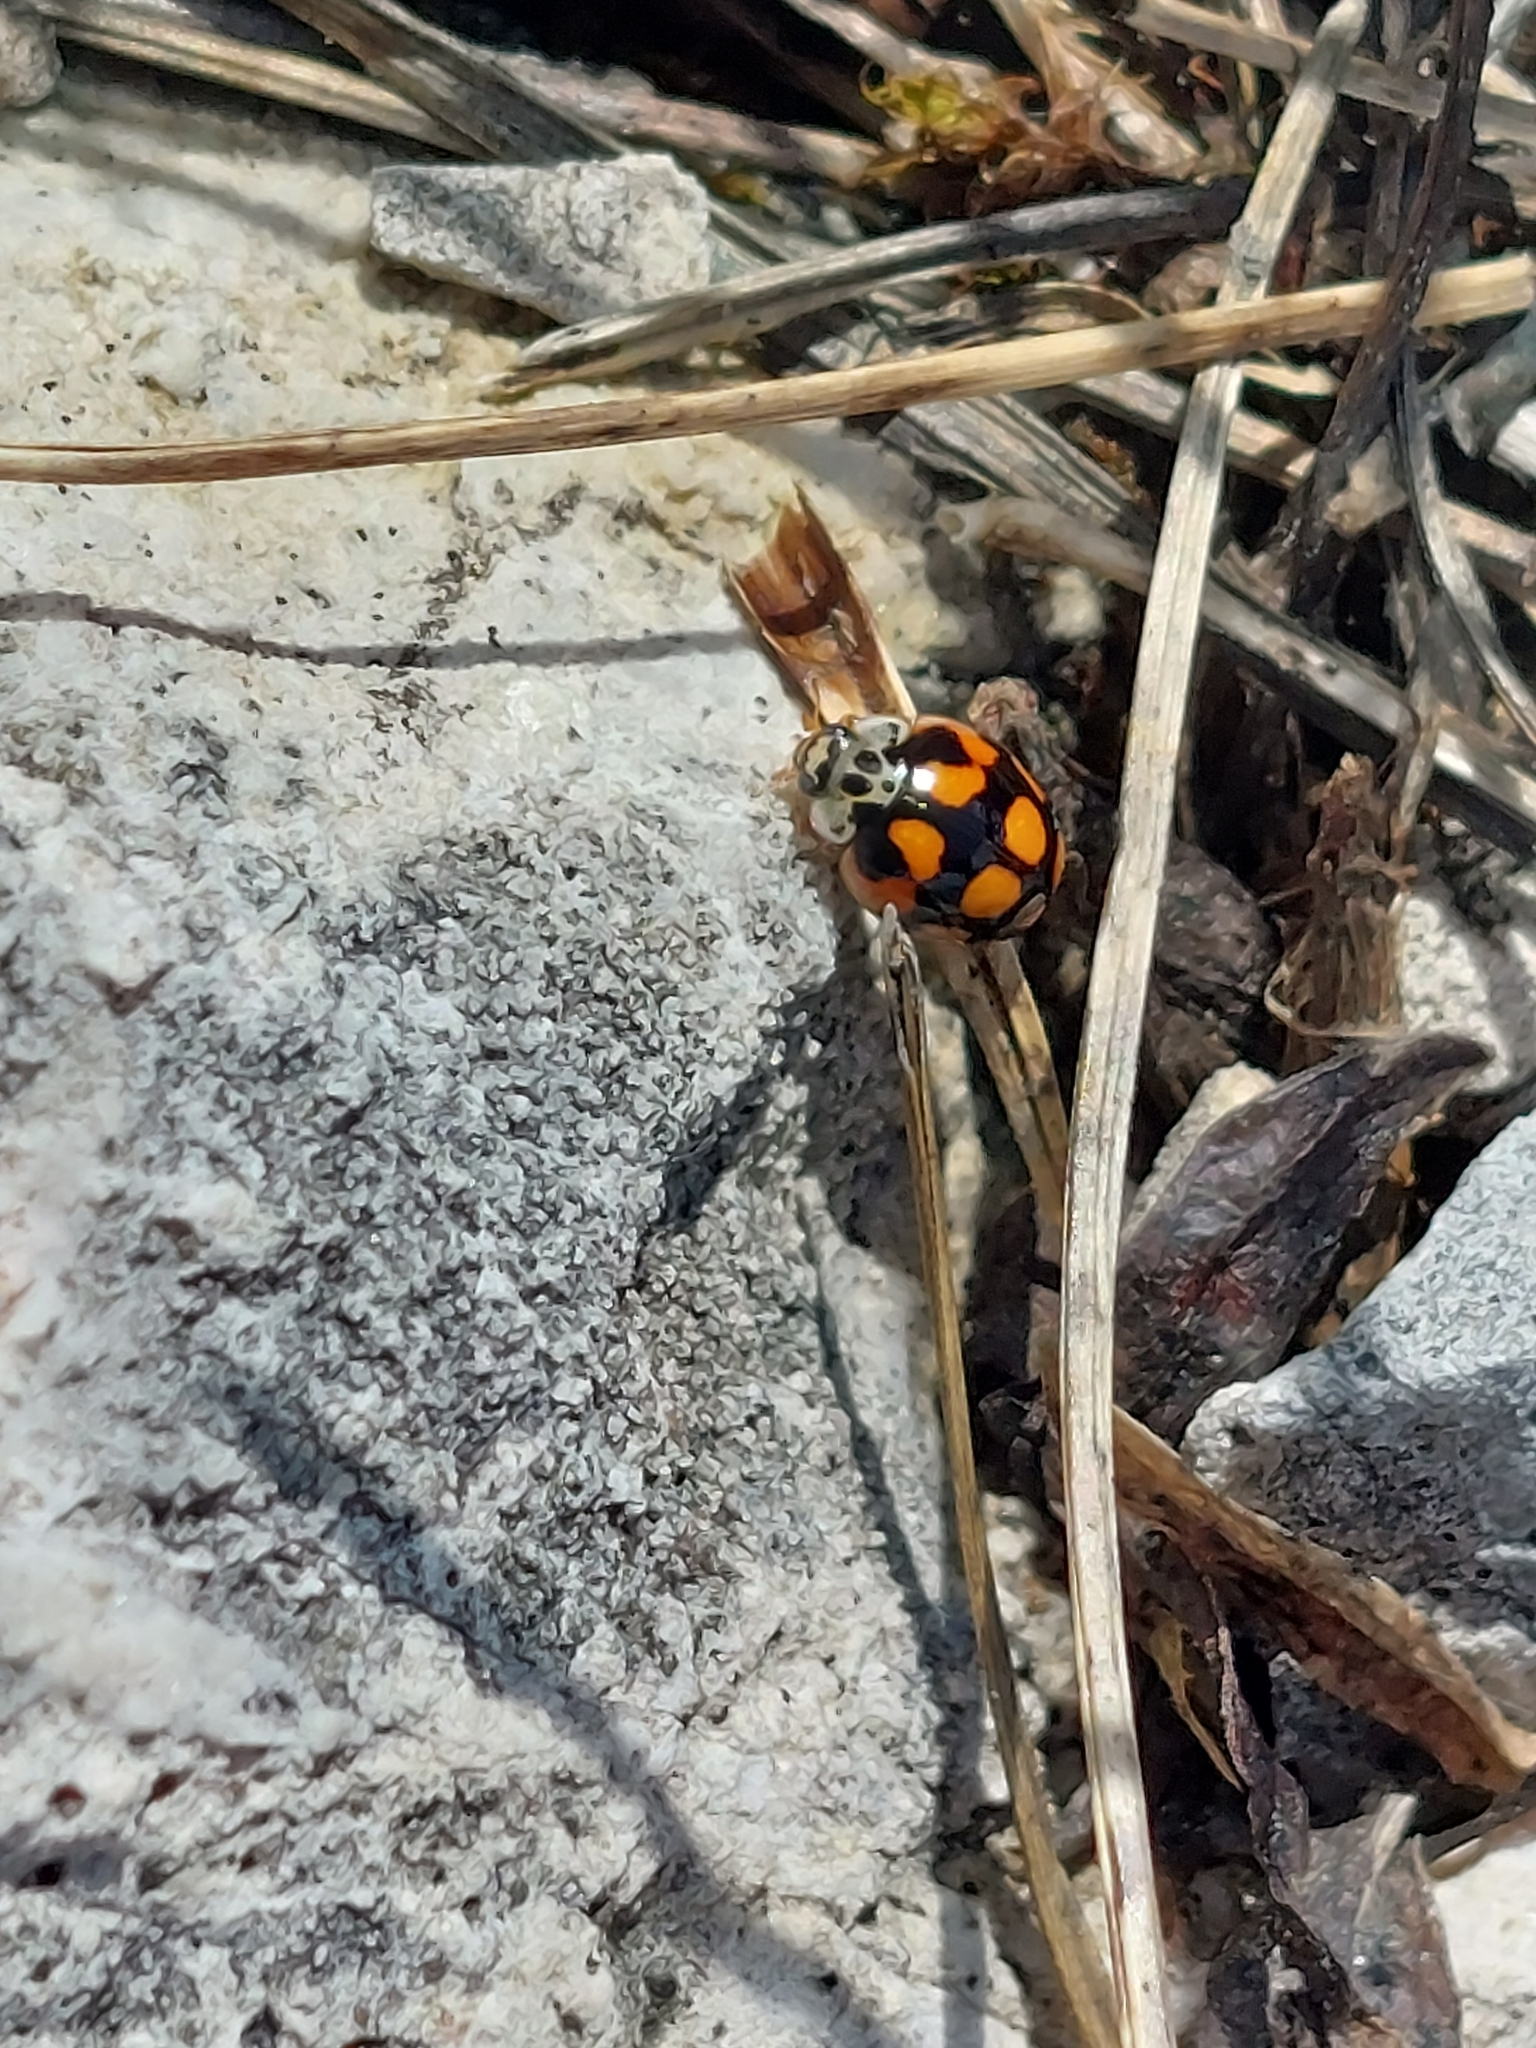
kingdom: Animalia
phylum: Arthropoda
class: Insecta
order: Coleoptera
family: Coccinellidae
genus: Adalia
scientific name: Adalia decempunctata
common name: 10-spot ladybird
